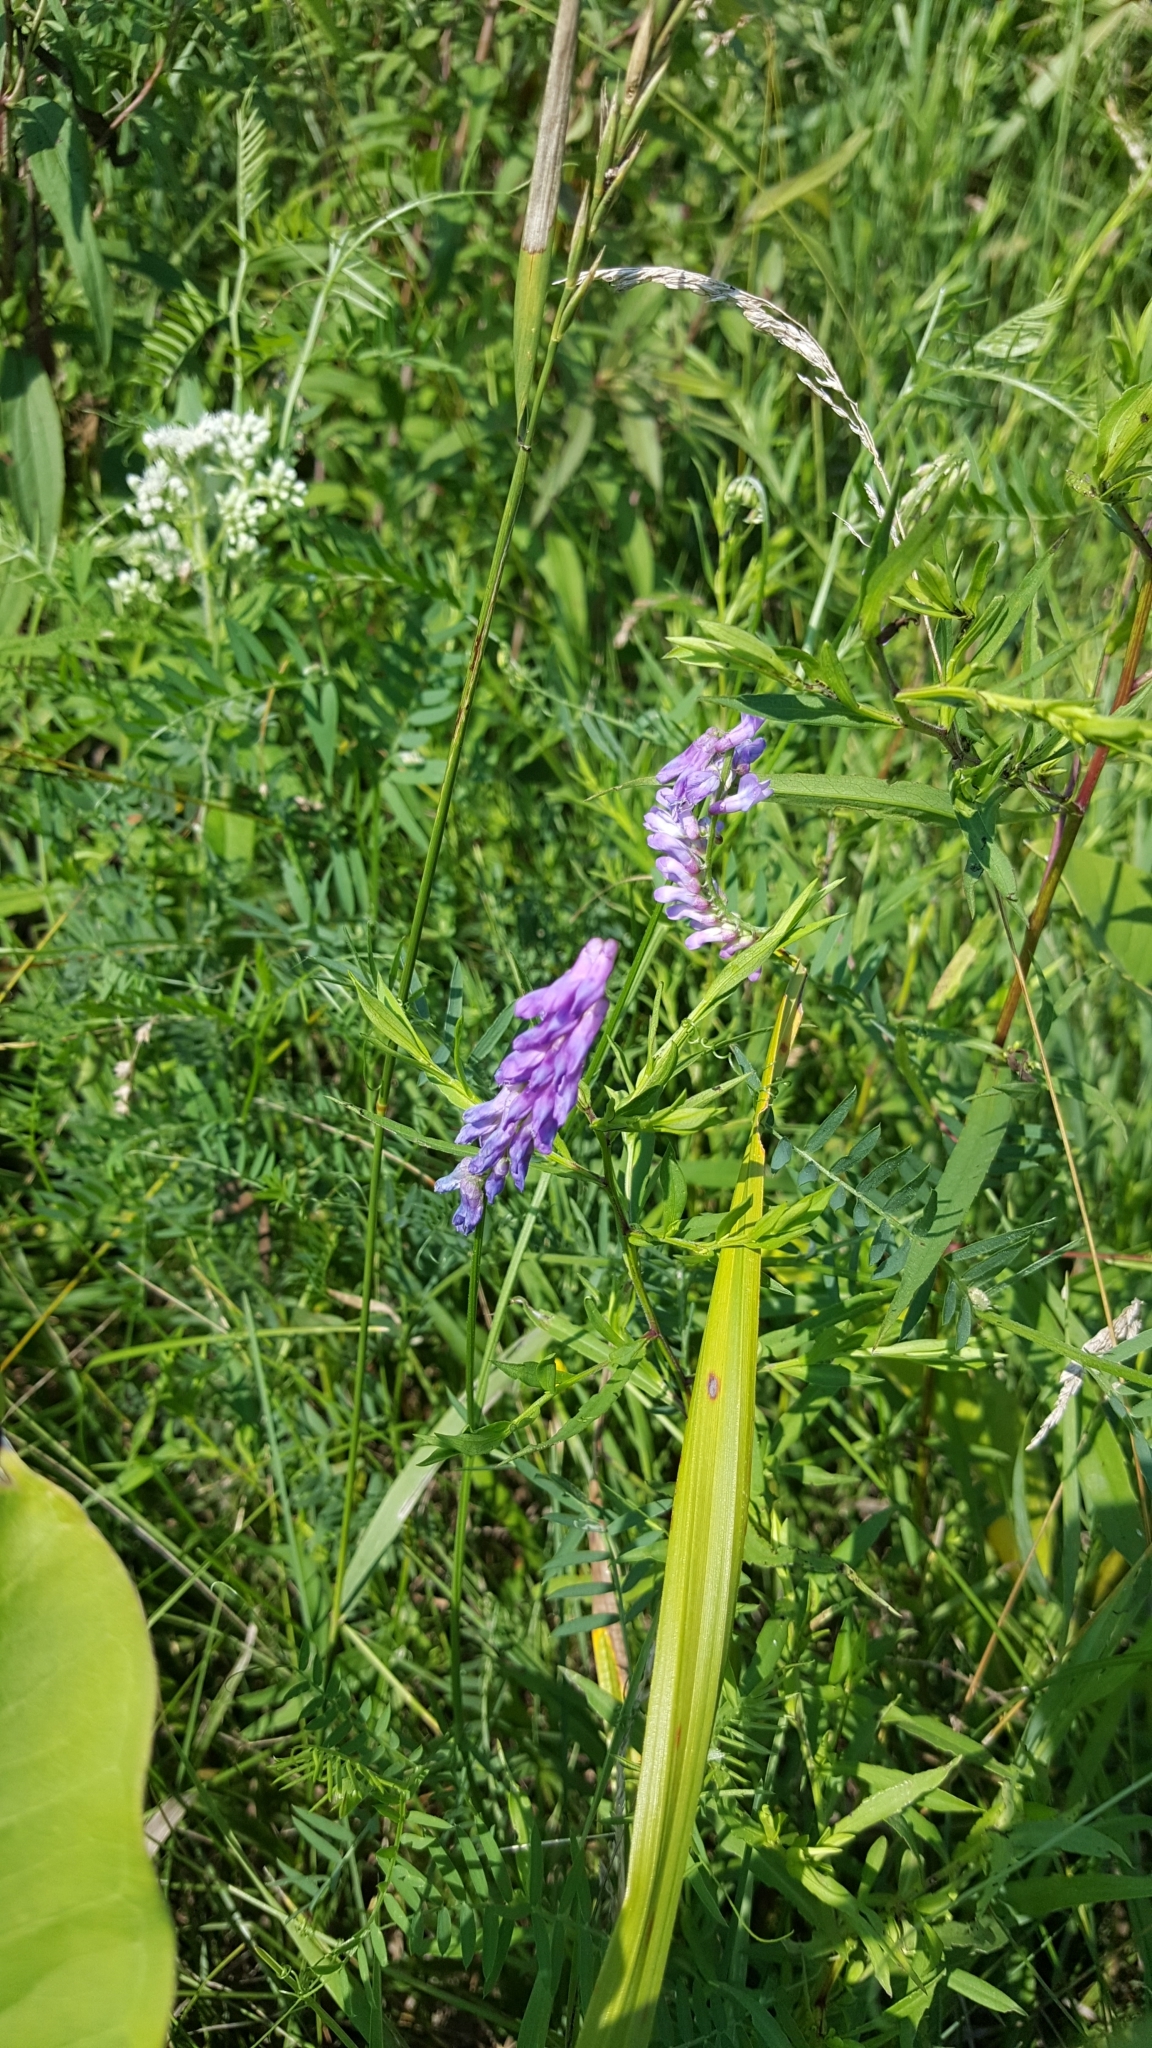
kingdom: Plantae
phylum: Tracheophyta
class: Magnoliopsida
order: Fabales
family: Fabaceae
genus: Vicia
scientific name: Vicia cracca
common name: Bird vetch
